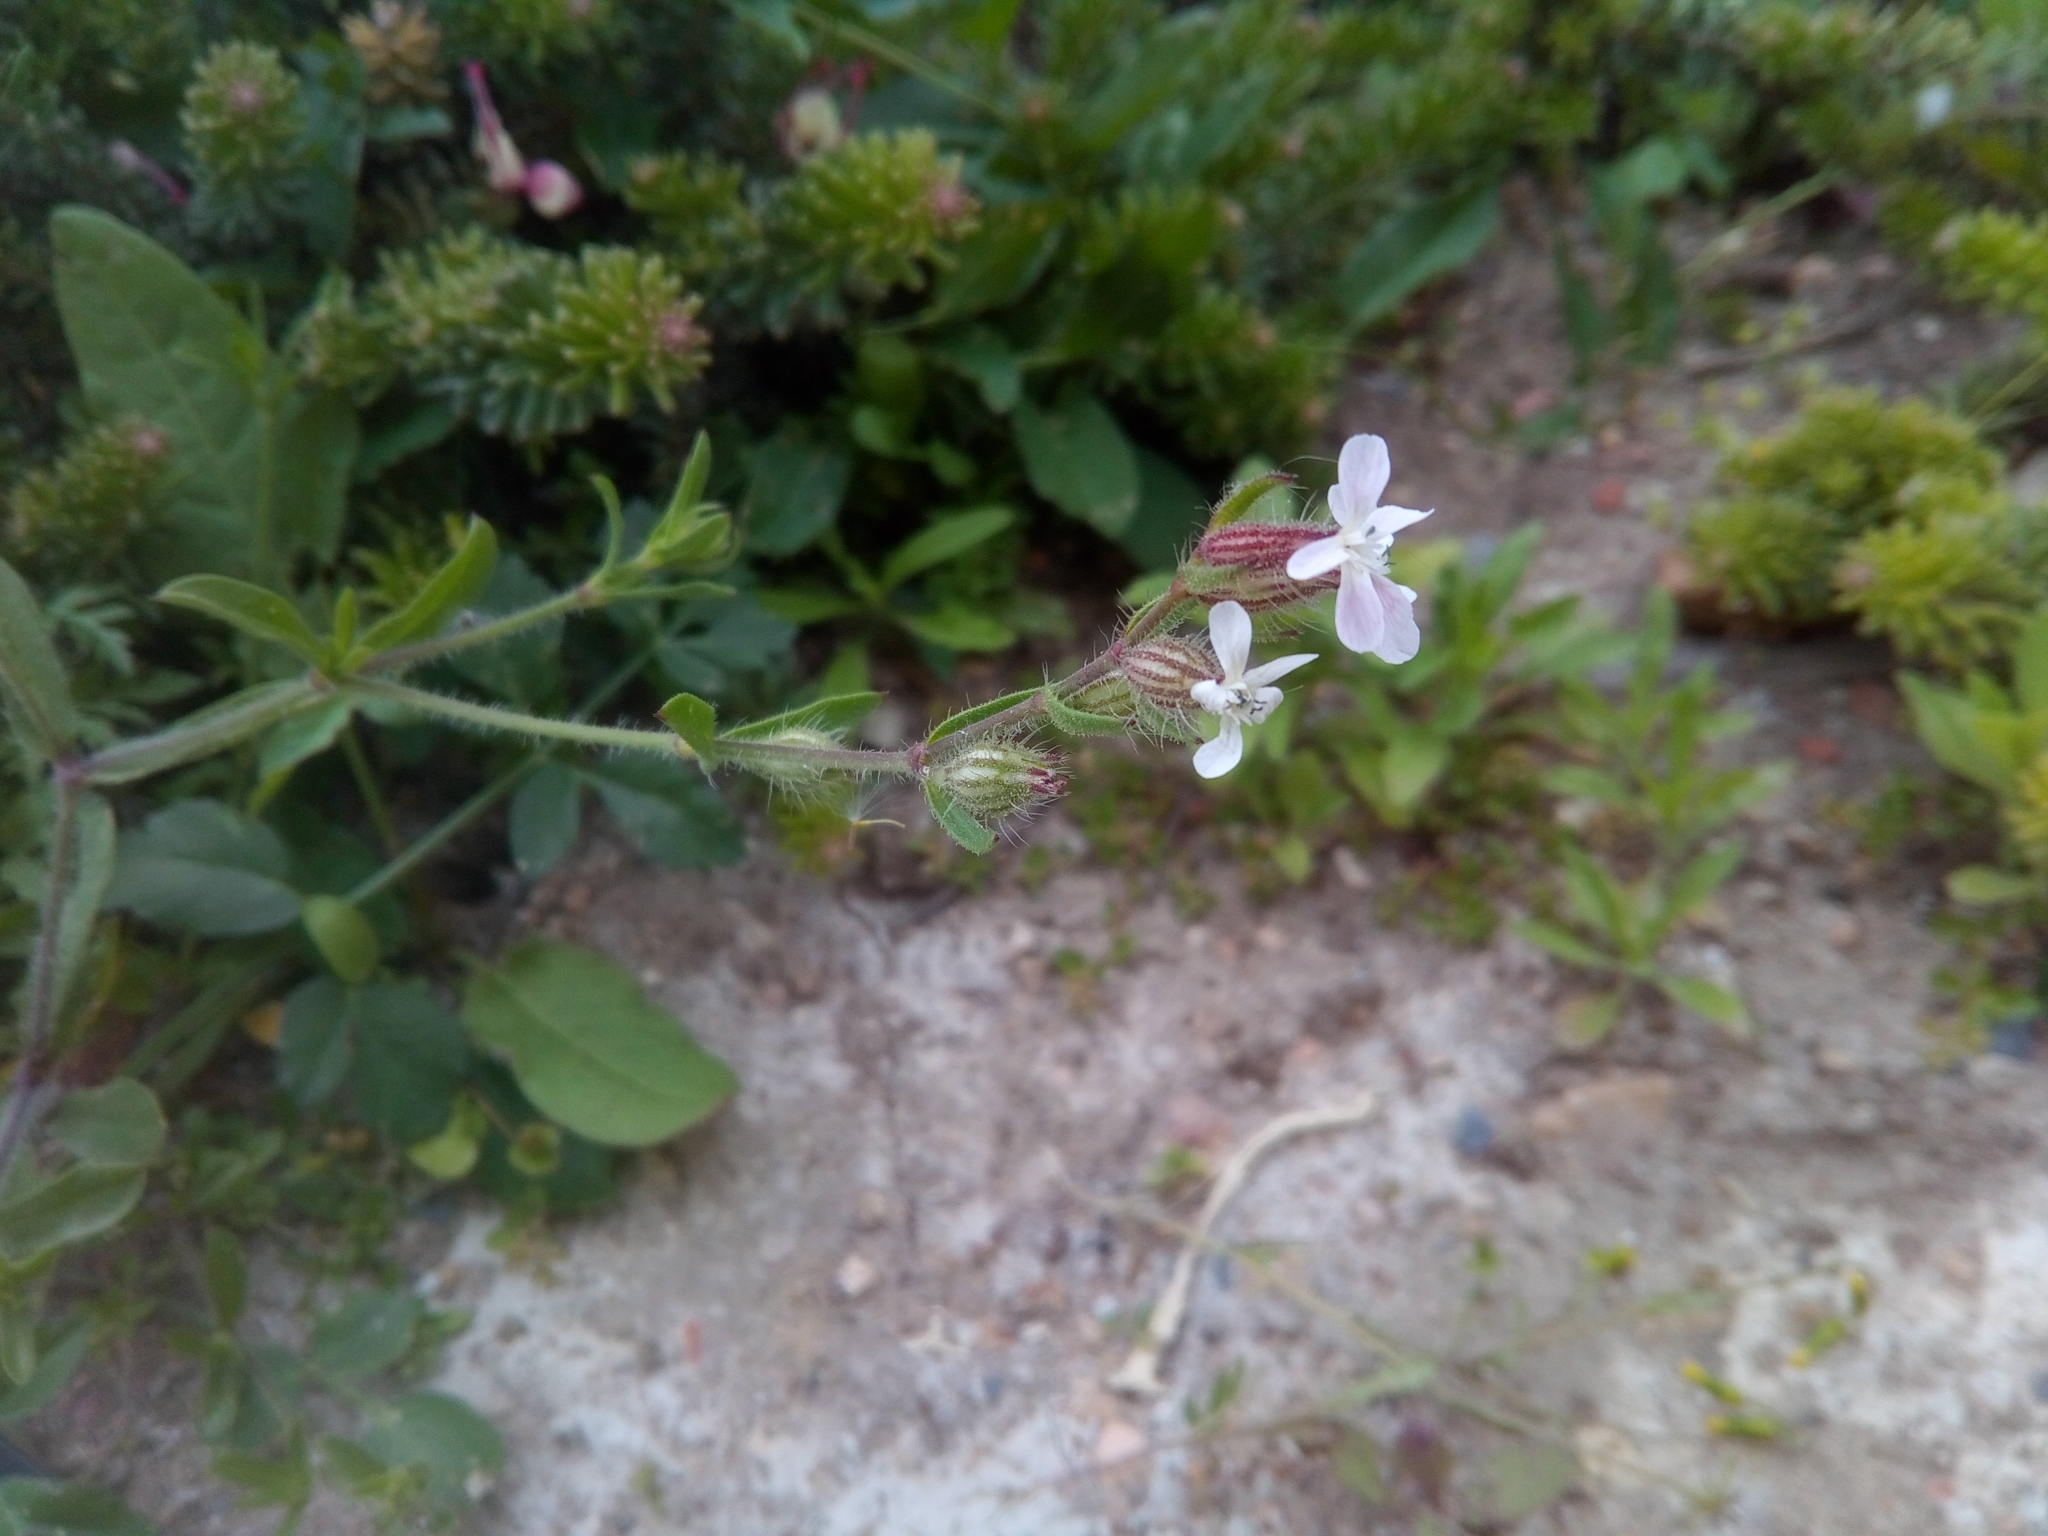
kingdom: Plantae
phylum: Tracheophyta
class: Magnoliopsida
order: Caryophyllales
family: Caryophyllaceae
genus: Silene
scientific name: Silene gallica
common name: Small-flowered catchfly
